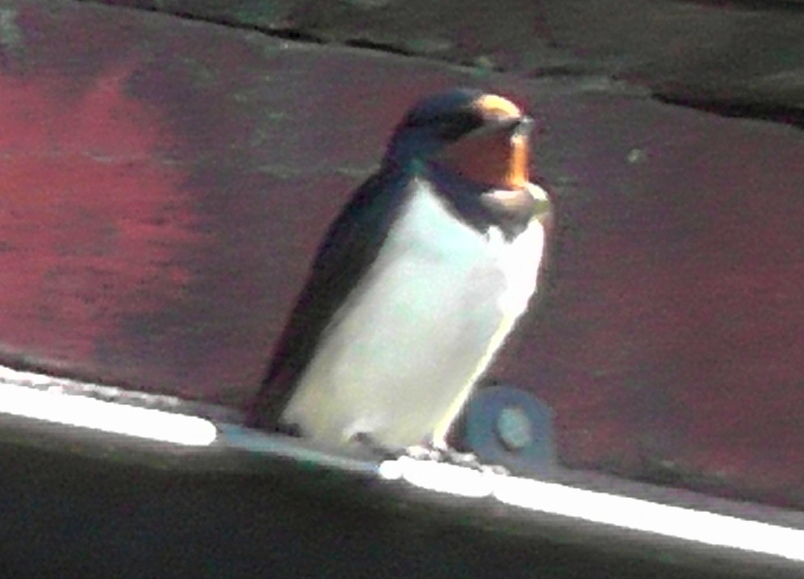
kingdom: Animalia
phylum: Chordata
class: Aves
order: Passeriformes
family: Hirundinidae
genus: Hirundo
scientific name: Hirundo rustica
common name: Barn swallow
